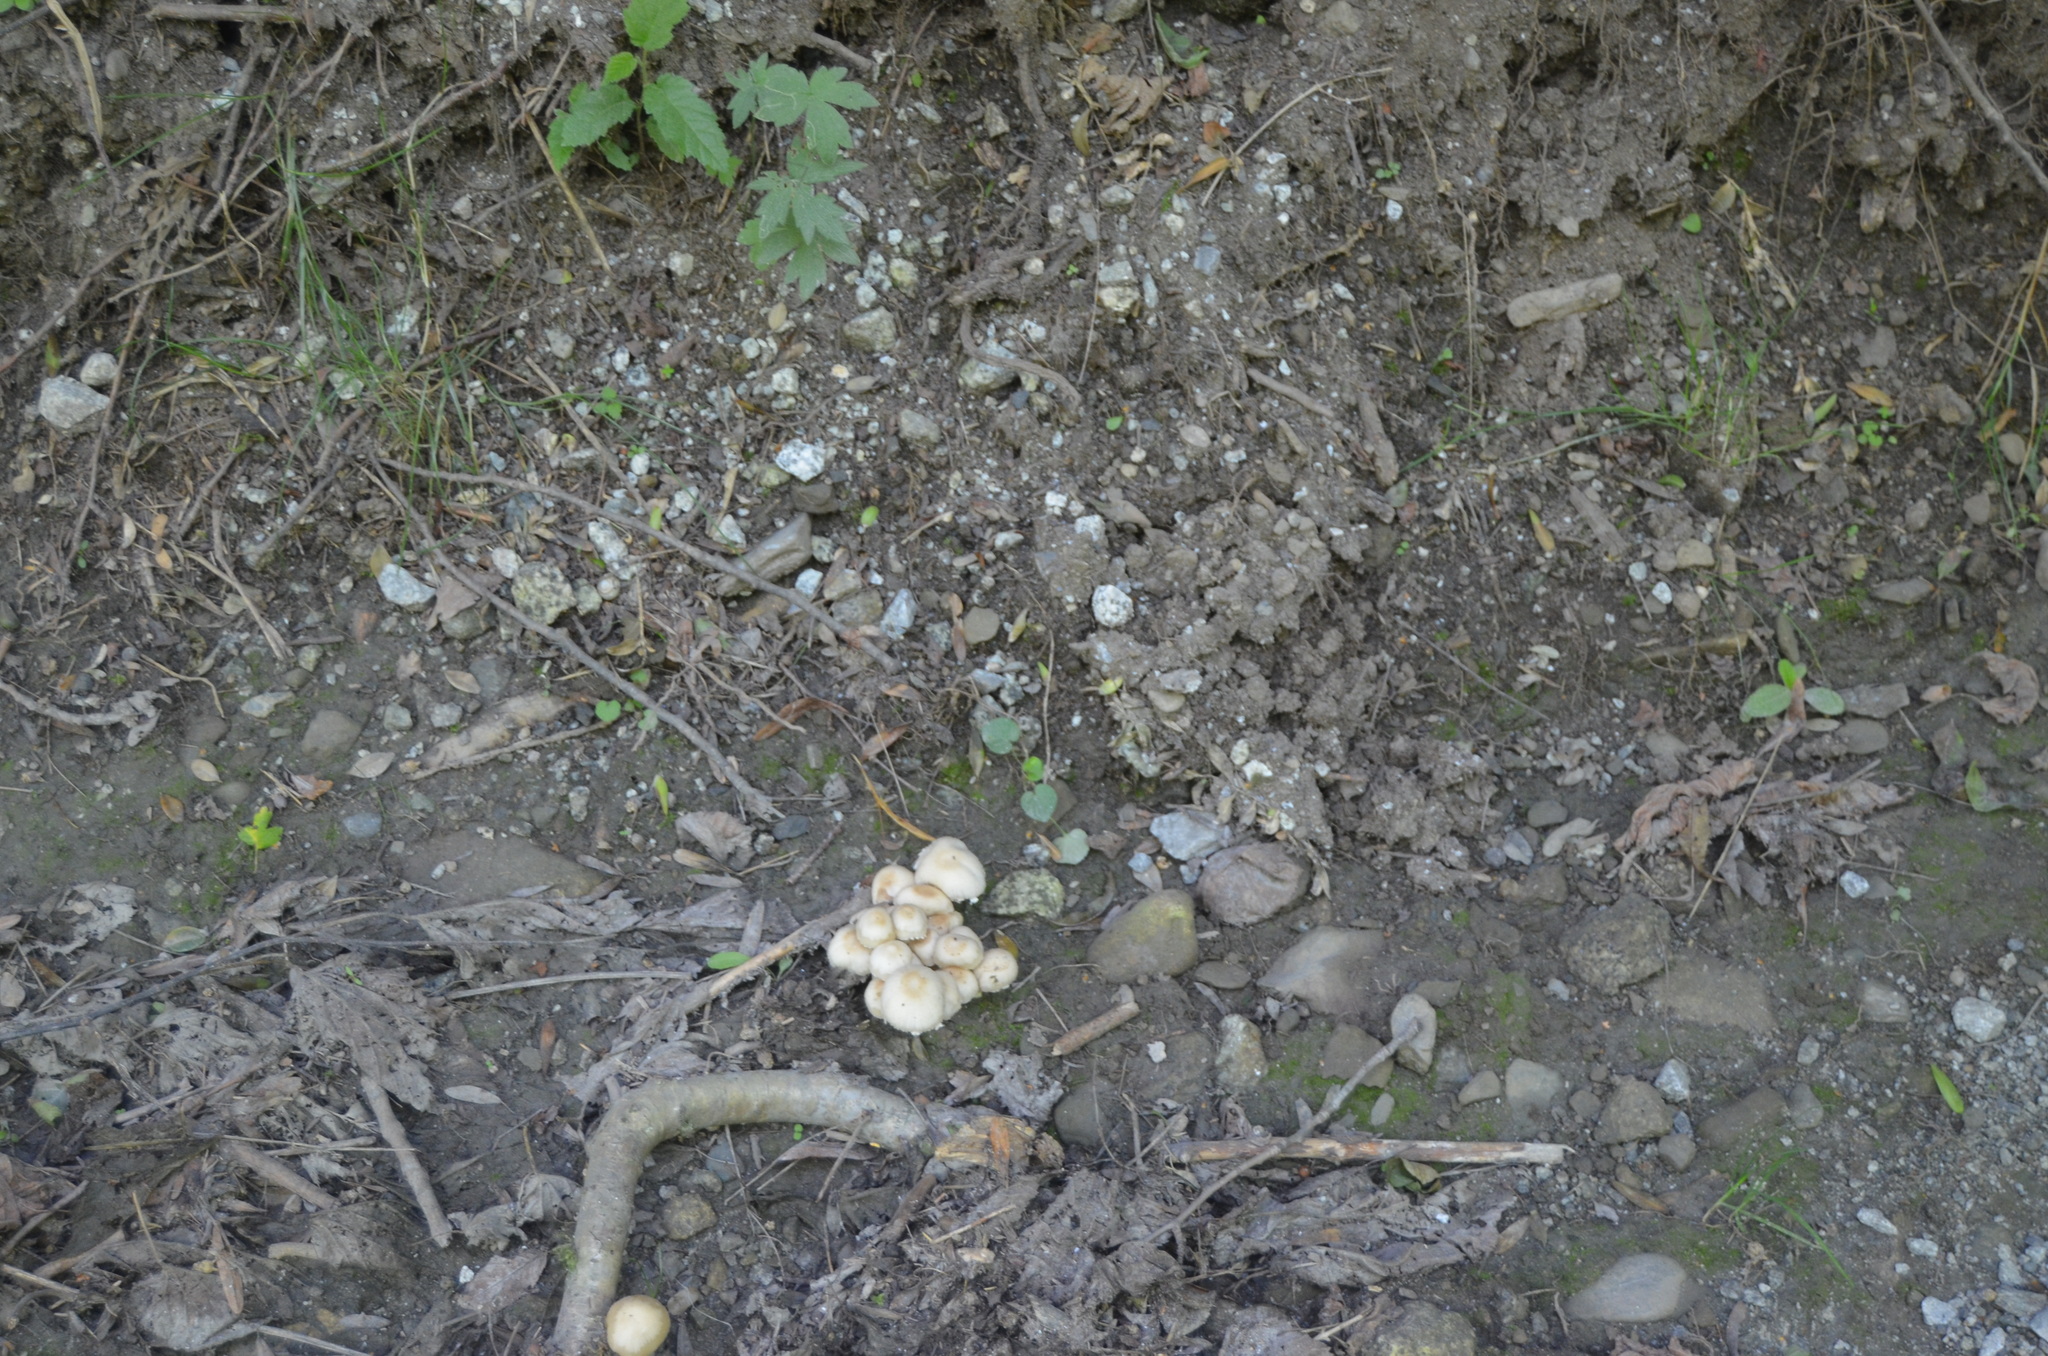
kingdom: Fungi
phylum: Basidiomycota
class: Agaricomycetes
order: Agaricales
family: Psathyrellaceae
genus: Candolleomyces
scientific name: Candolleomyces candolleanus
